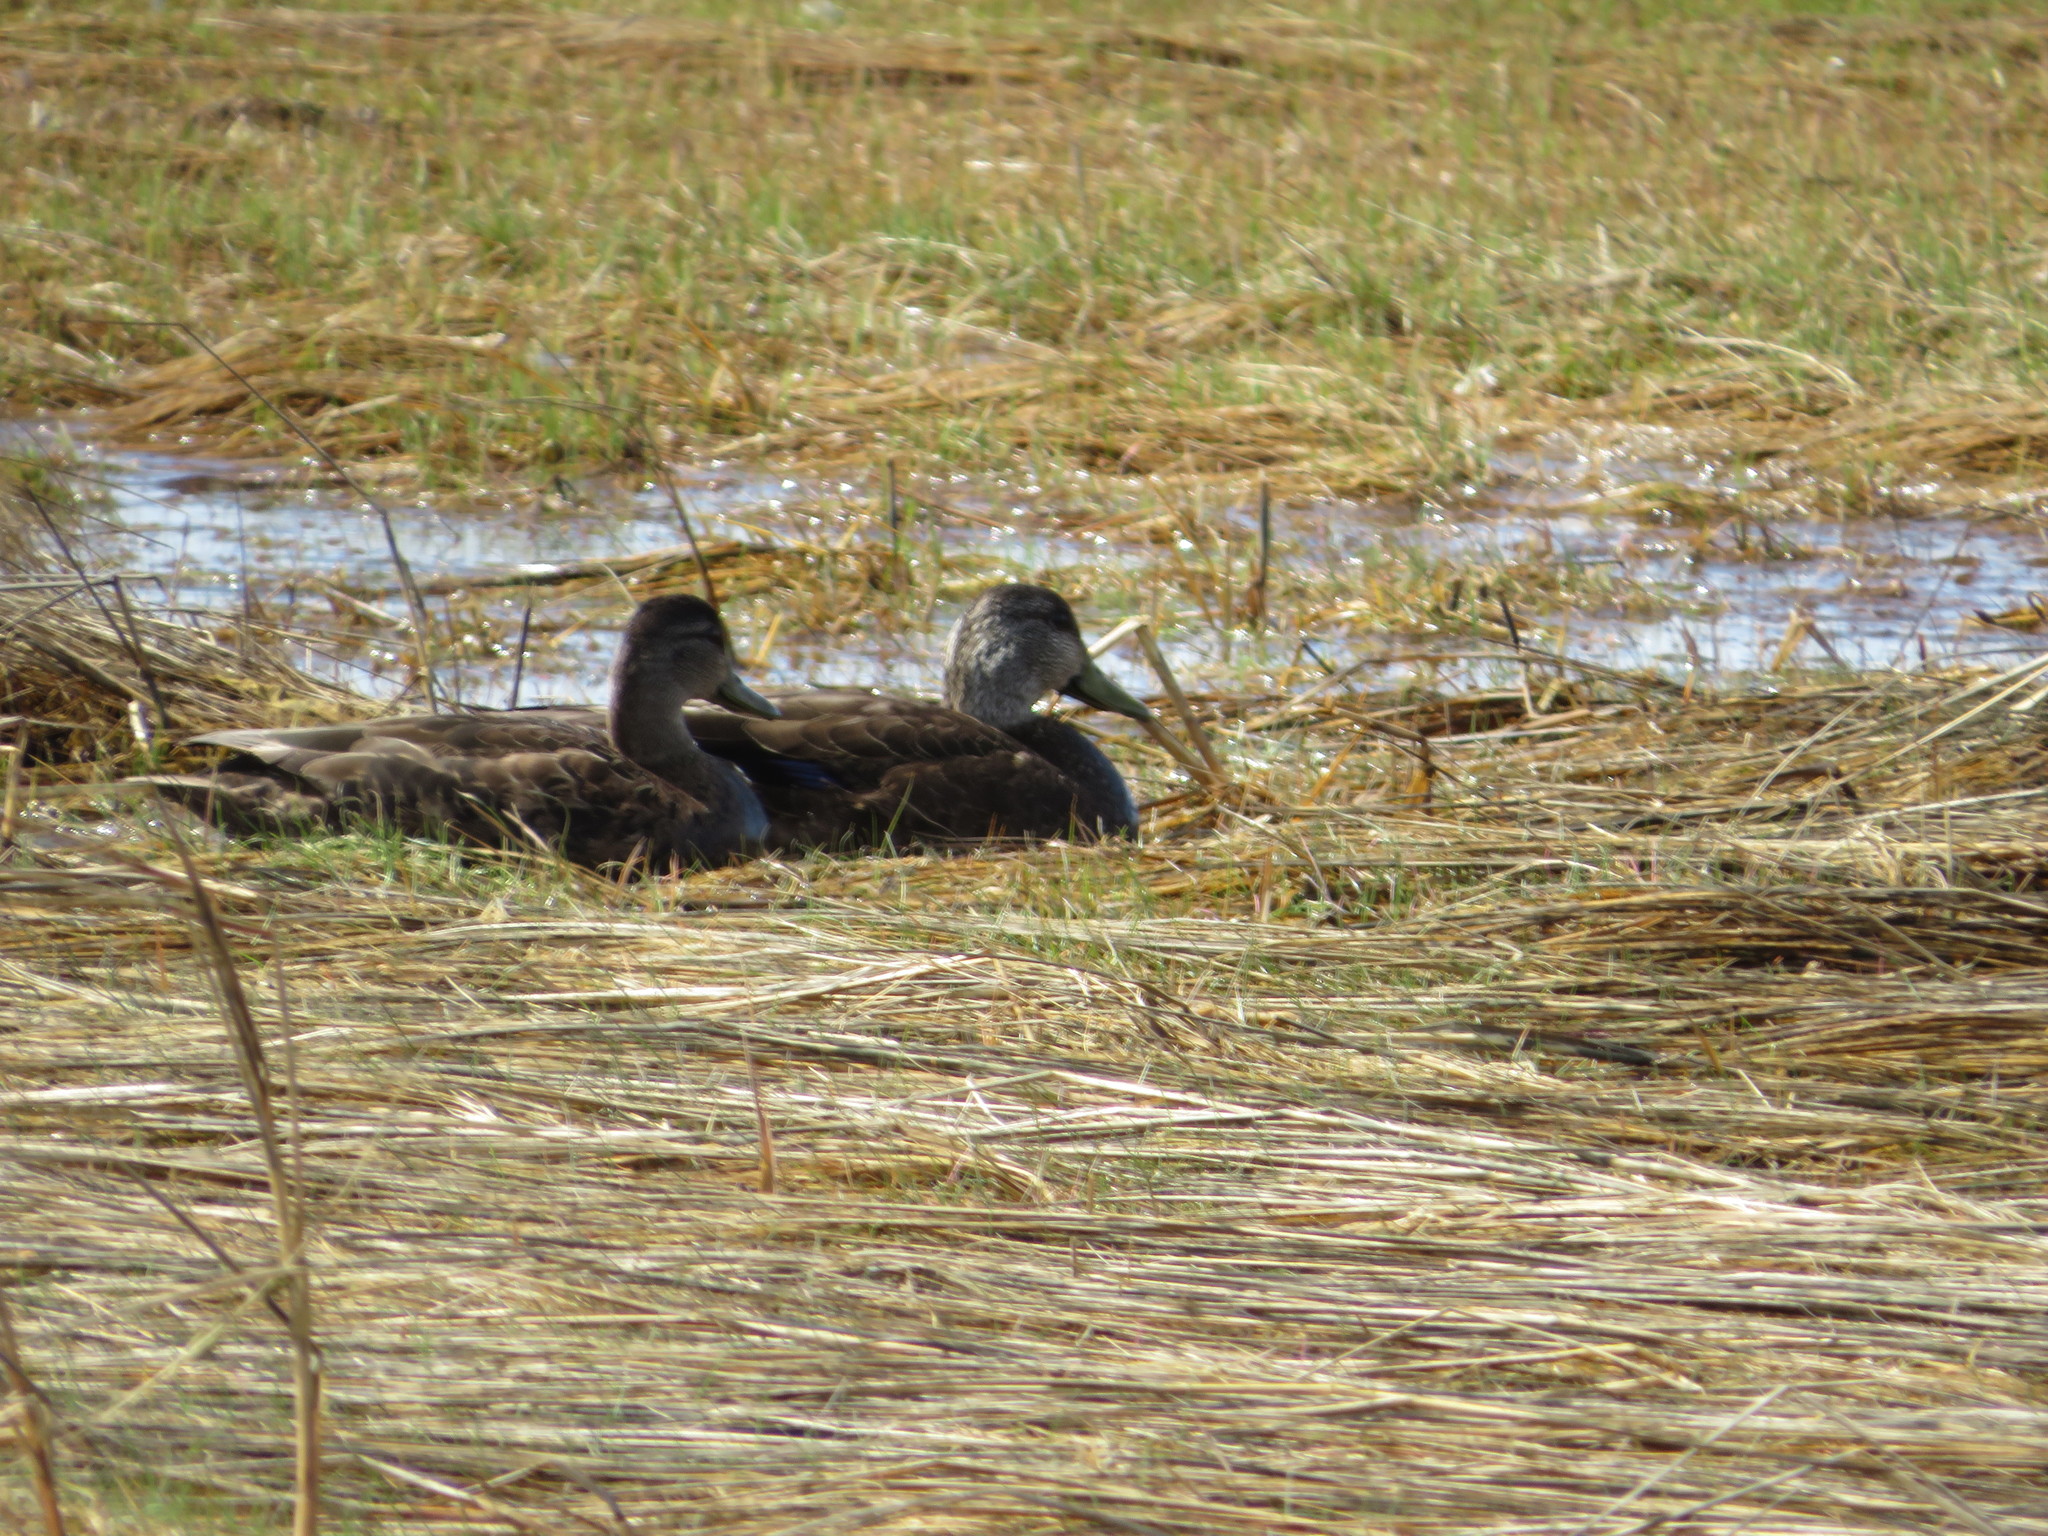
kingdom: Animalia
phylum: Chordata
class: Aves
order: Anseriformes
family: Anatidae
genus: Anas
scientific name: Anas rubripes
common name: American black duck
